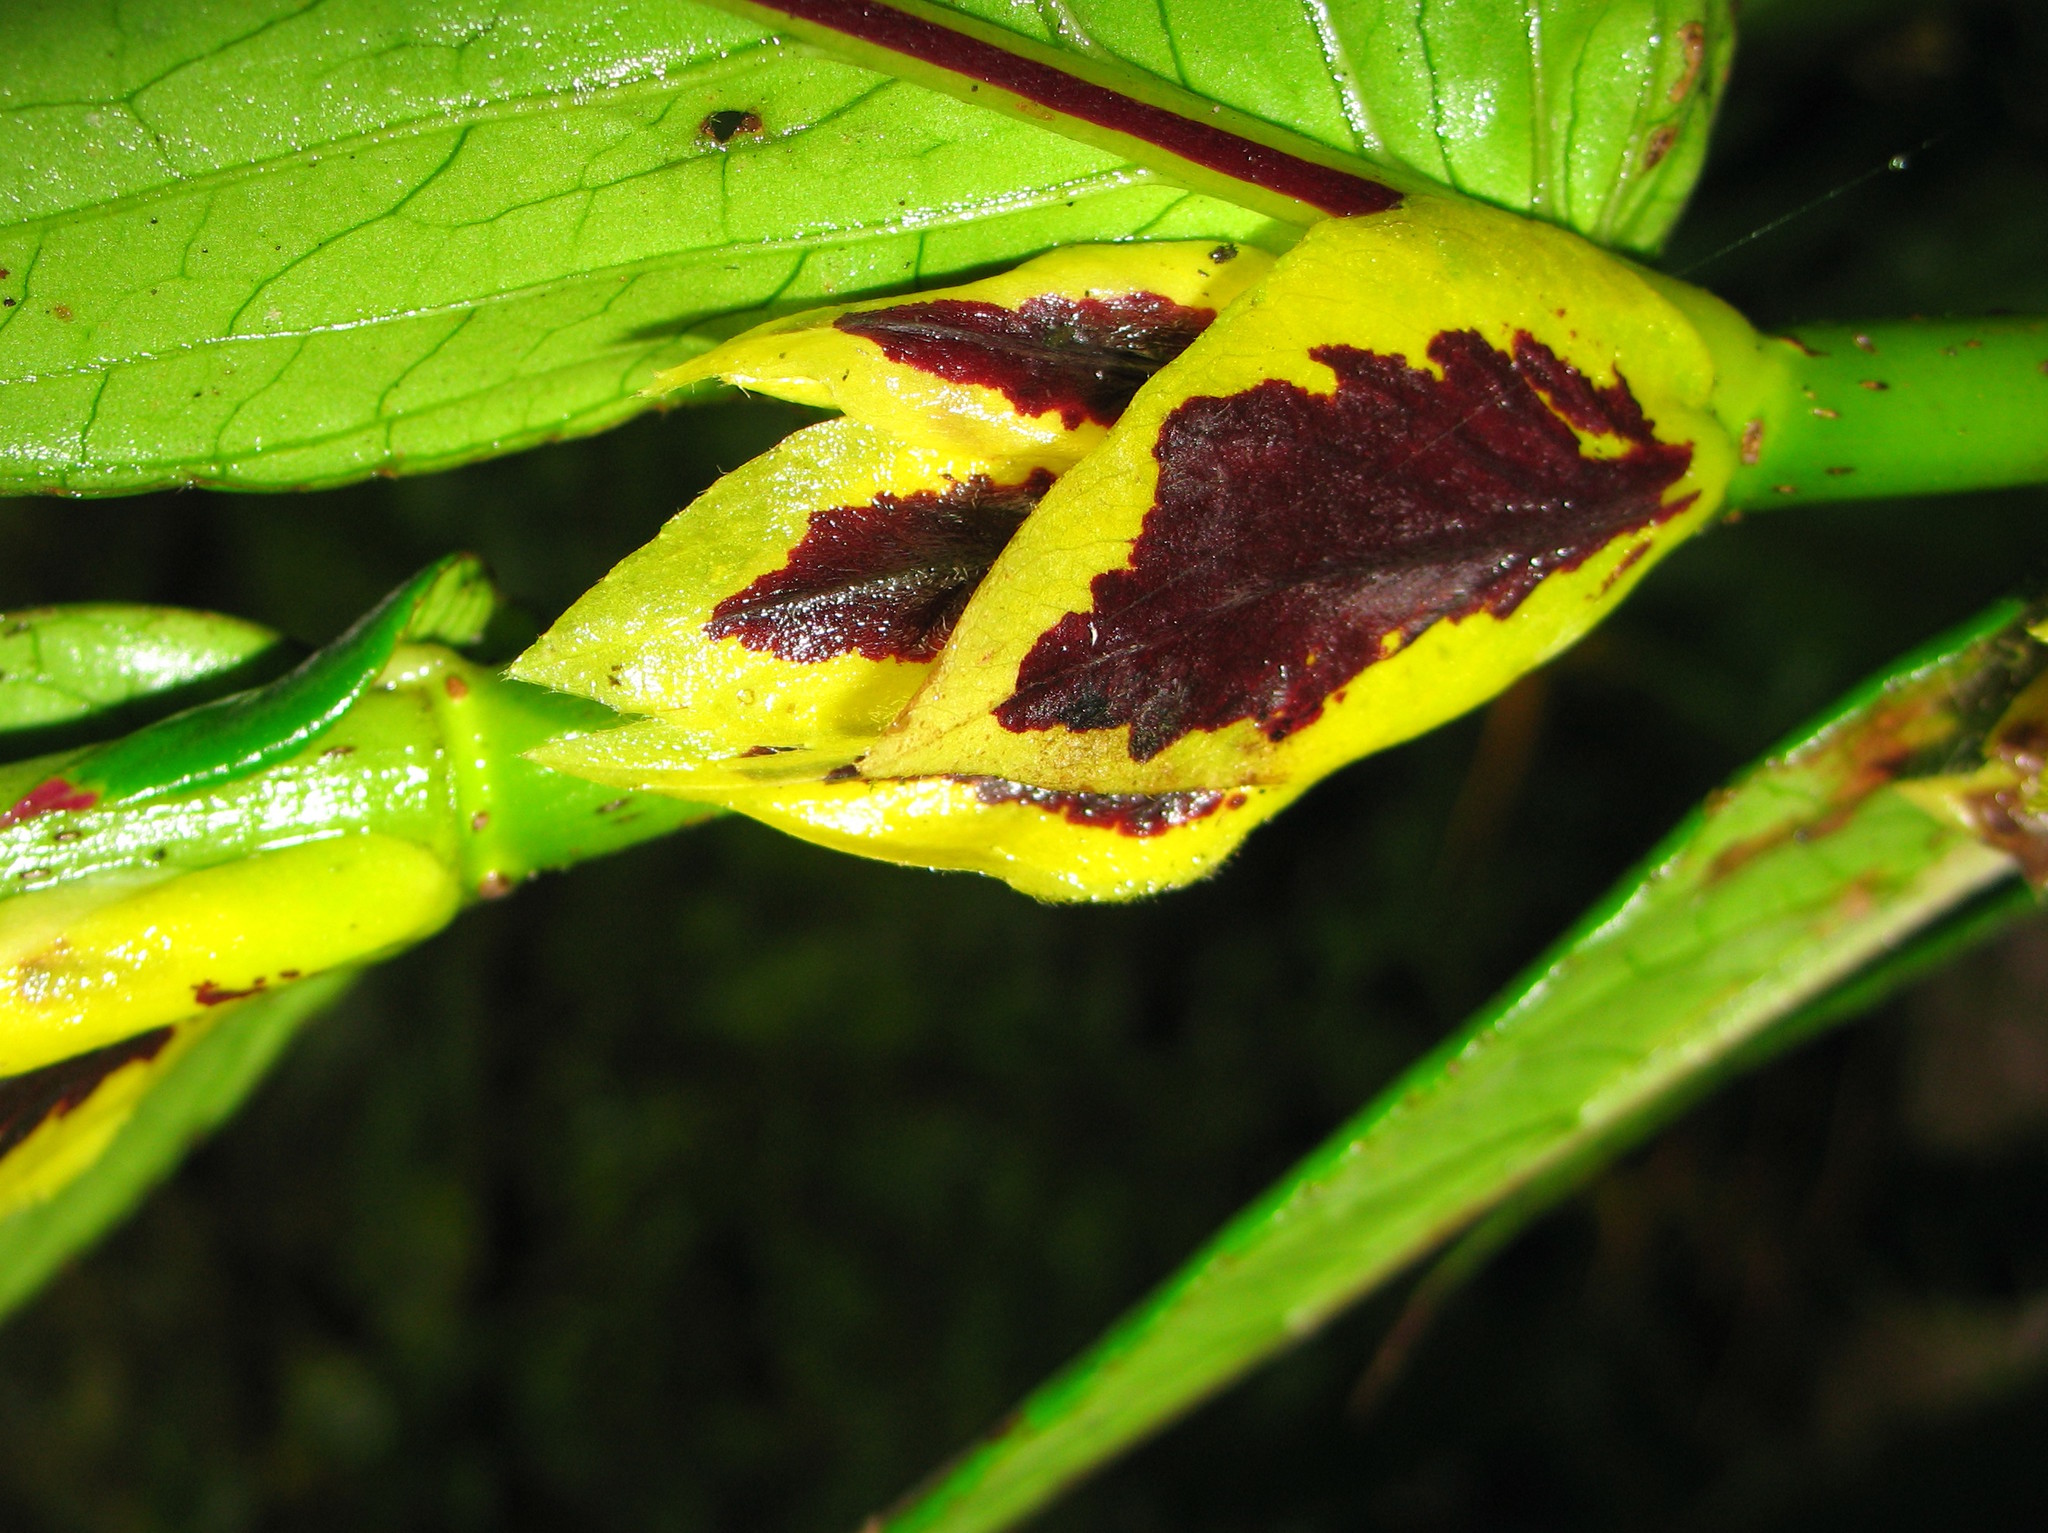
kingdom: Plantae
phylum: Tracheophyta
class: Magnoliopsida
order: Lamiales
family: Gesneriaceae
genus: Columnea
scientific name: Columnea picta
